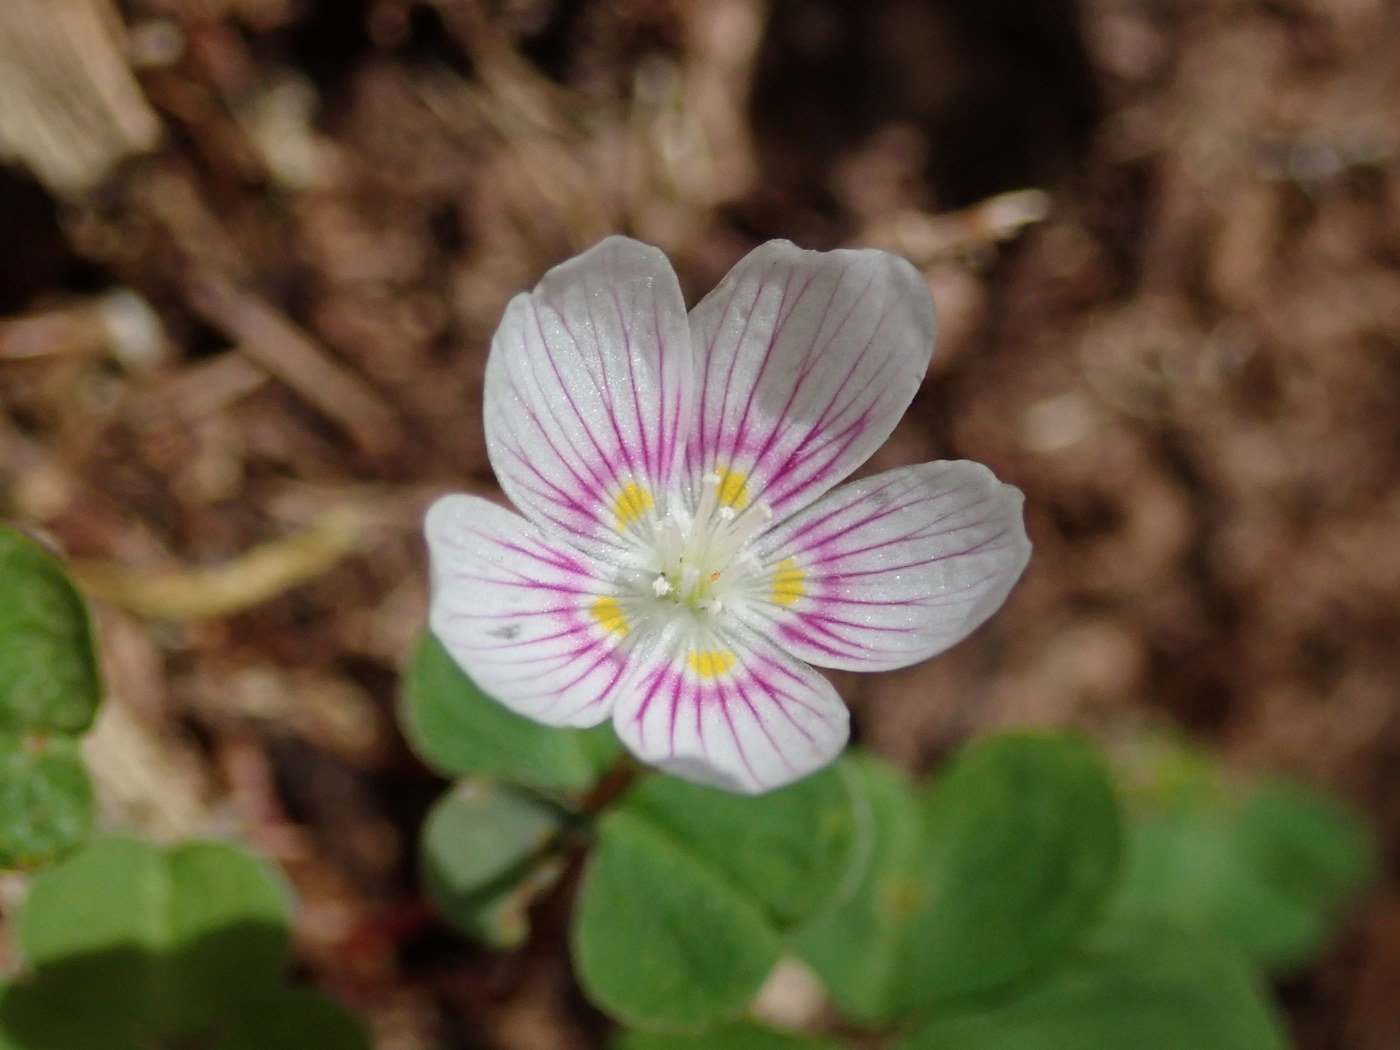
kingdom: Plantae
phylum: Tracheophyta
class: Magnoliopsida
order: Oxalidales
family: Oxalidaceae
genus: Oxalis
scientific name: Oxalis montana
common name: American wood-sorrel
